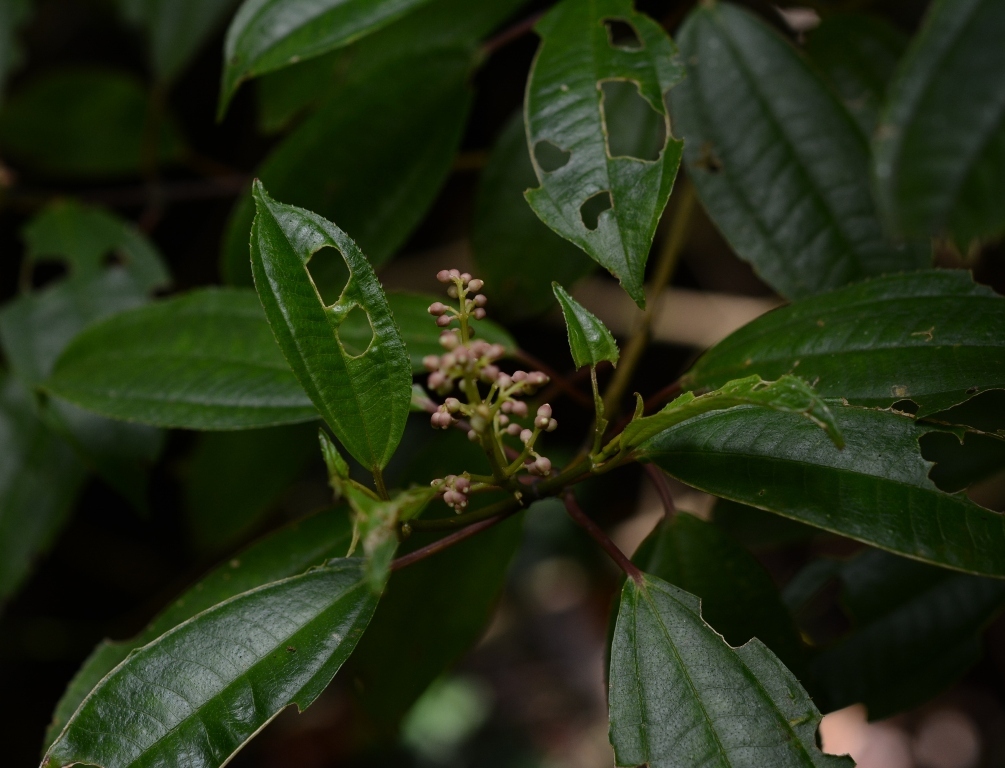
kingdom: Plantae
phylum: Tracheophyta
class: Magnoliopsida
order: Myrtales
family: Melastomataceae
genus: Miconia
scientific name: Miconia glaberrima
